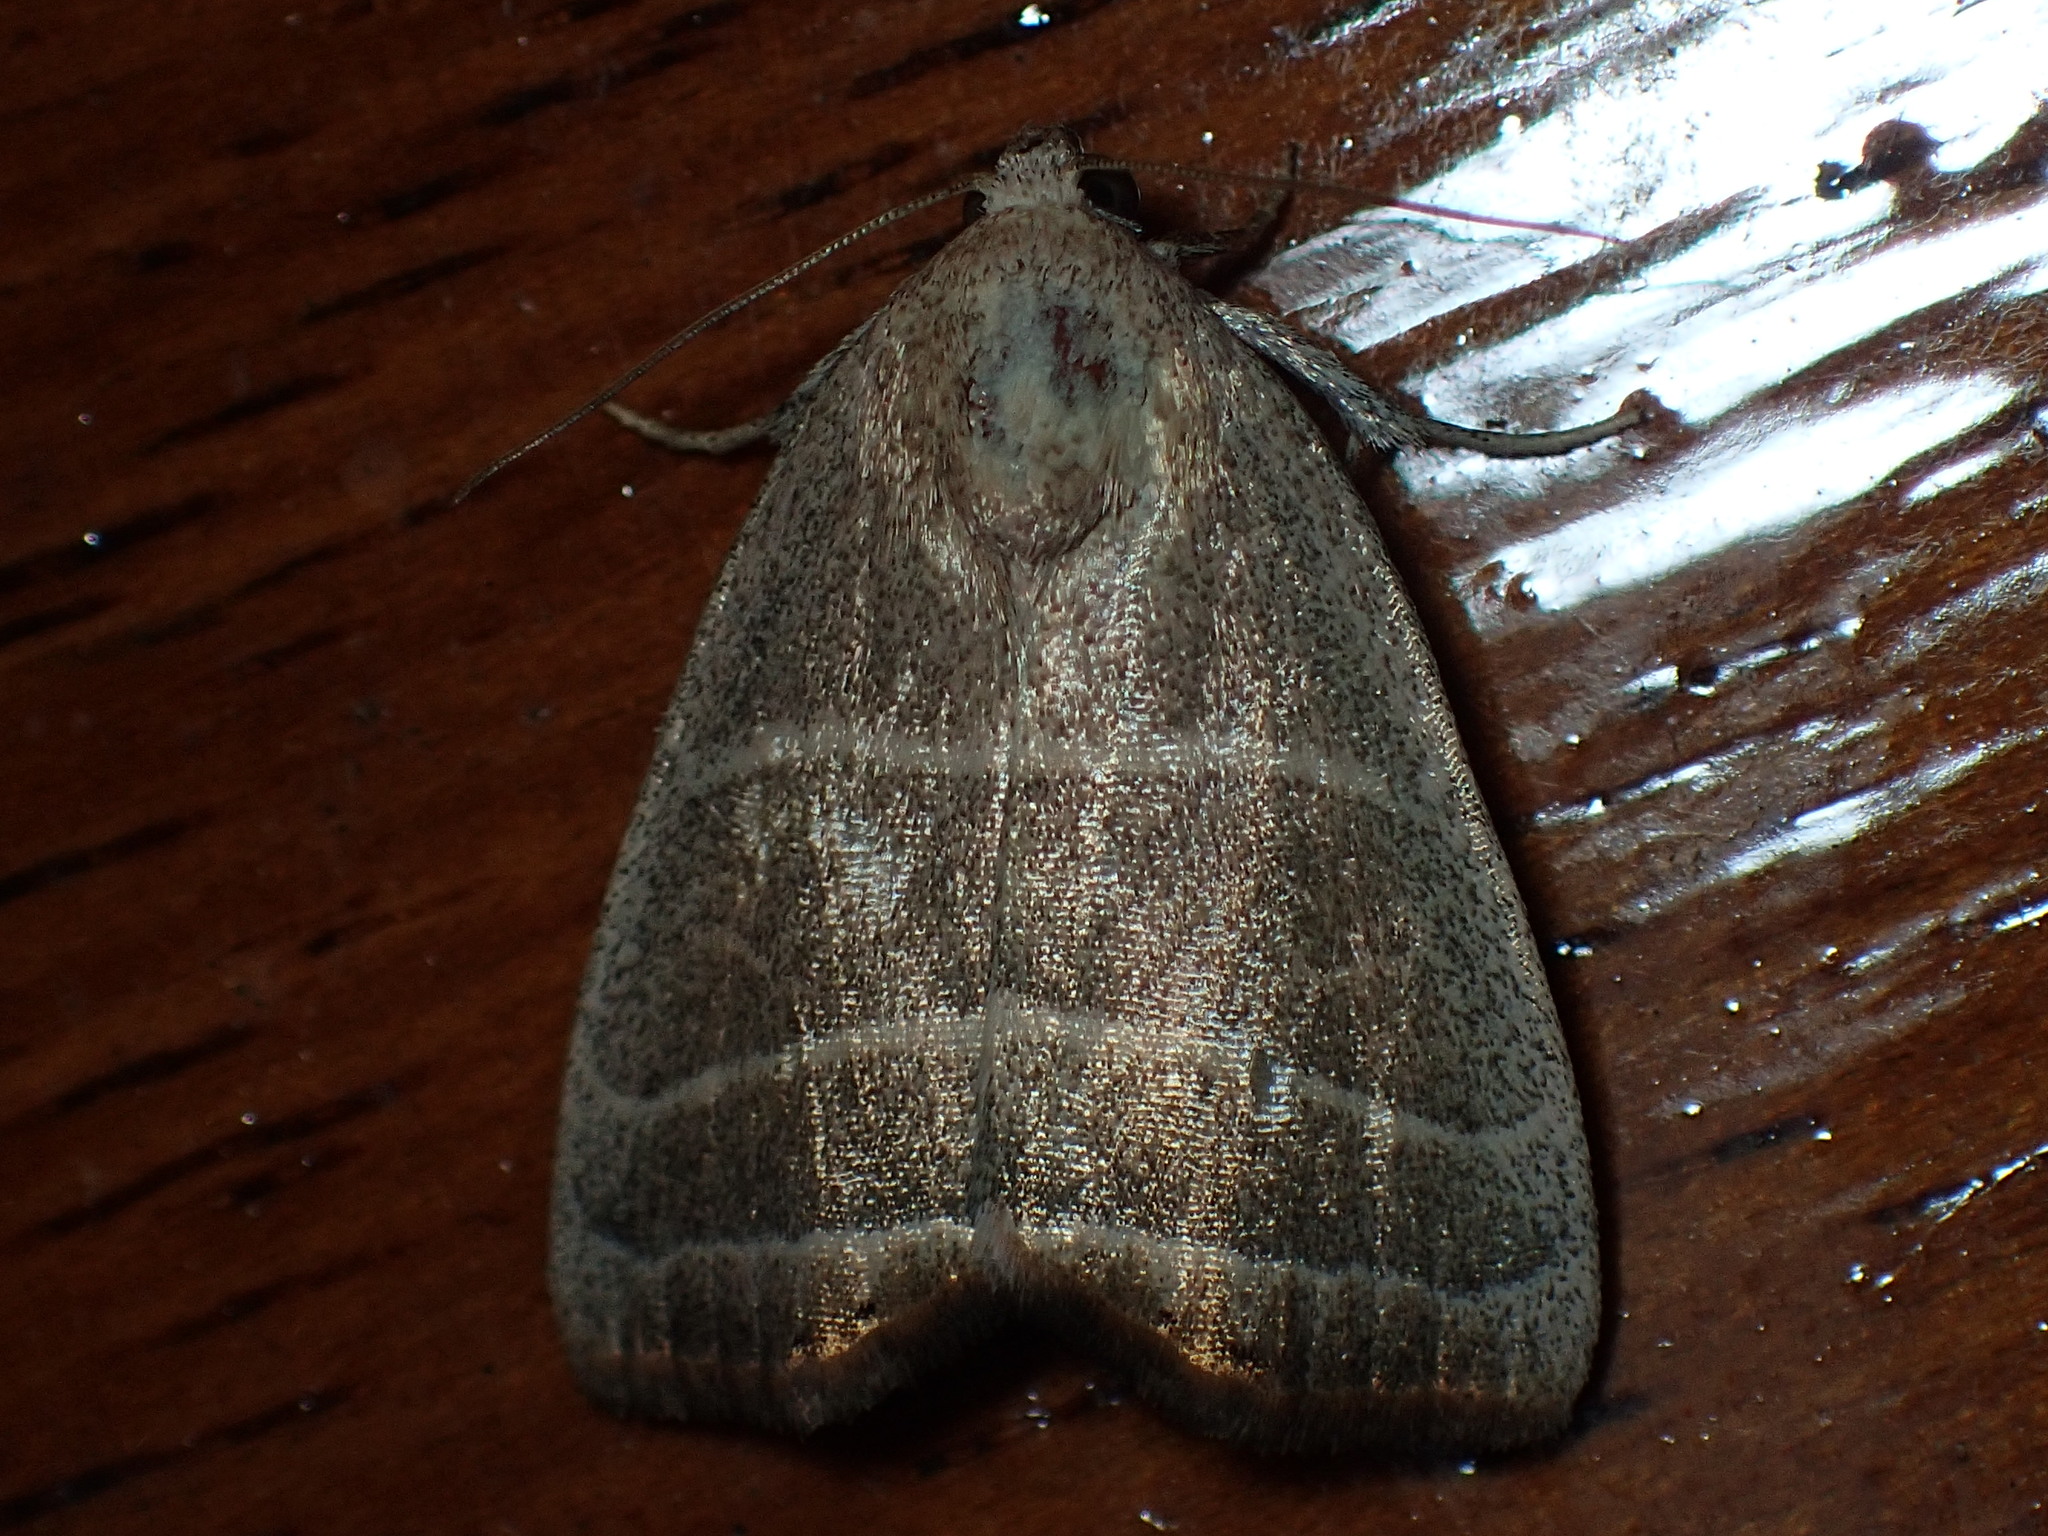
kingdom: Animalia
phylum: Arthropoda
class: Insecta
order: Lepidoptera
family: Noctuidae
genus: Bagisara
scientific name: Bagisara rectifascia
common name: Straight lined mallow moth
